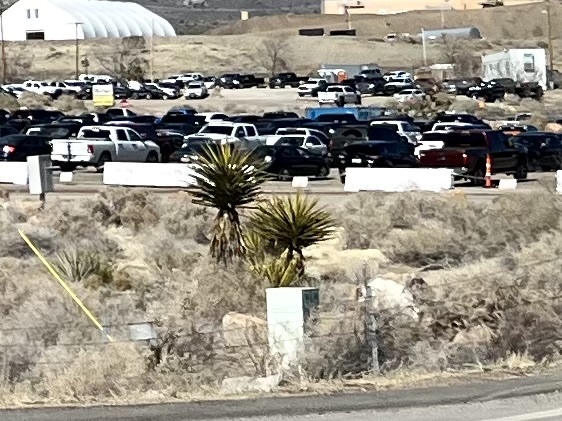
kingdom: Plantae
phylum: Tracheophyta
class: Liliopsida
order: Asparagales
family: Asparagaceae
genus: Yucca
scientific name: Yucca schidigera
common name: Mojave yucca
